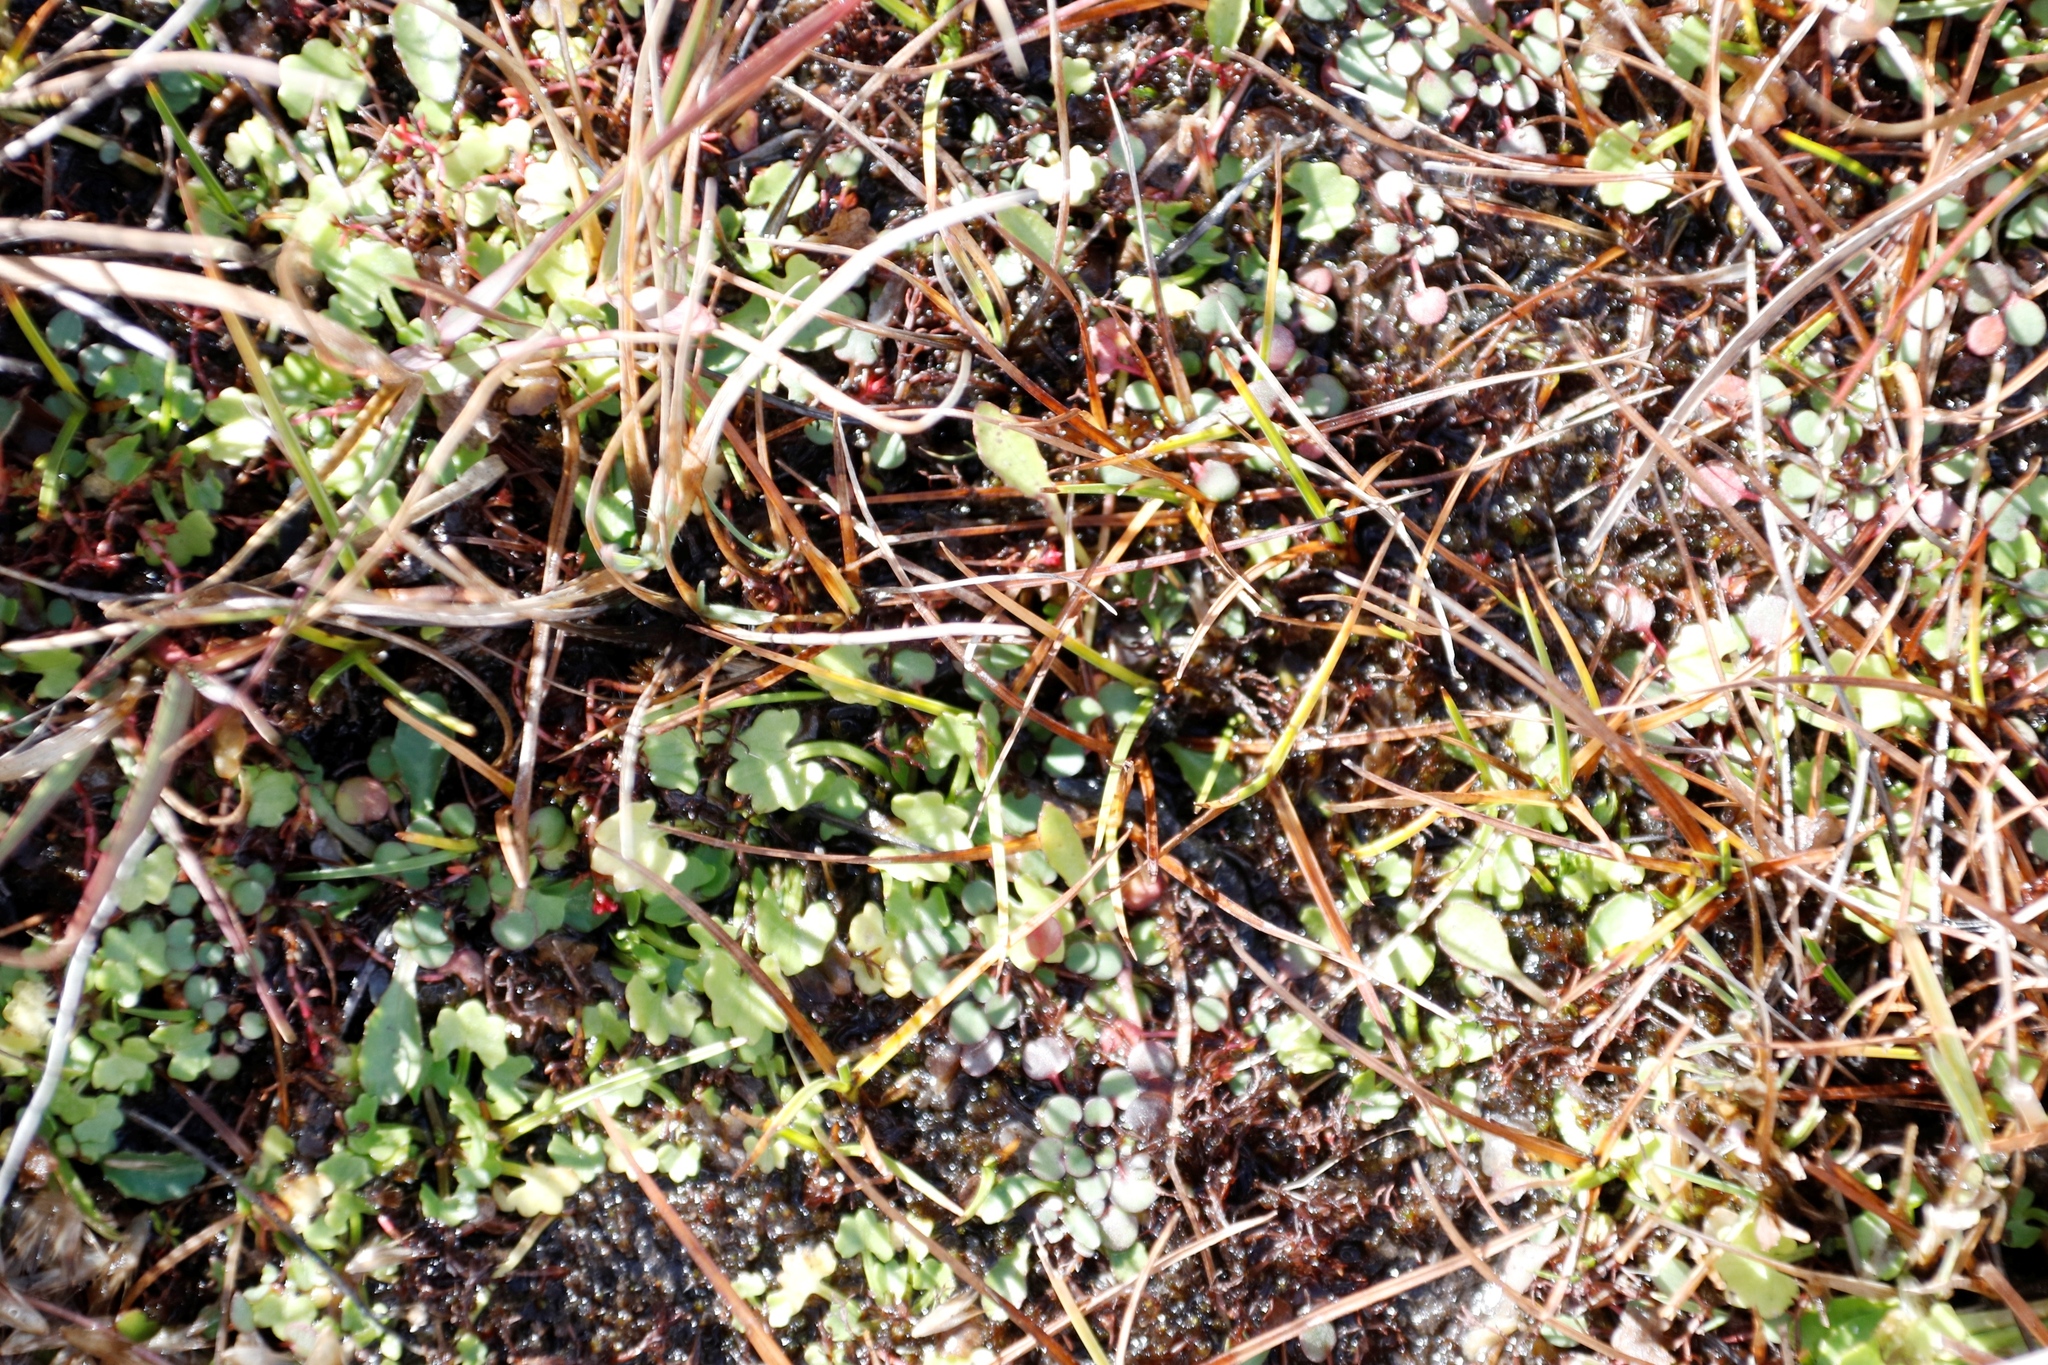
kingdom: Plantae
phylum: Tracheophyta
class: Magnoliopsida
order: Ranunculales
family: Ranunculaceae
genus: Ranunculus
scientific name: Ranunculus dregei
